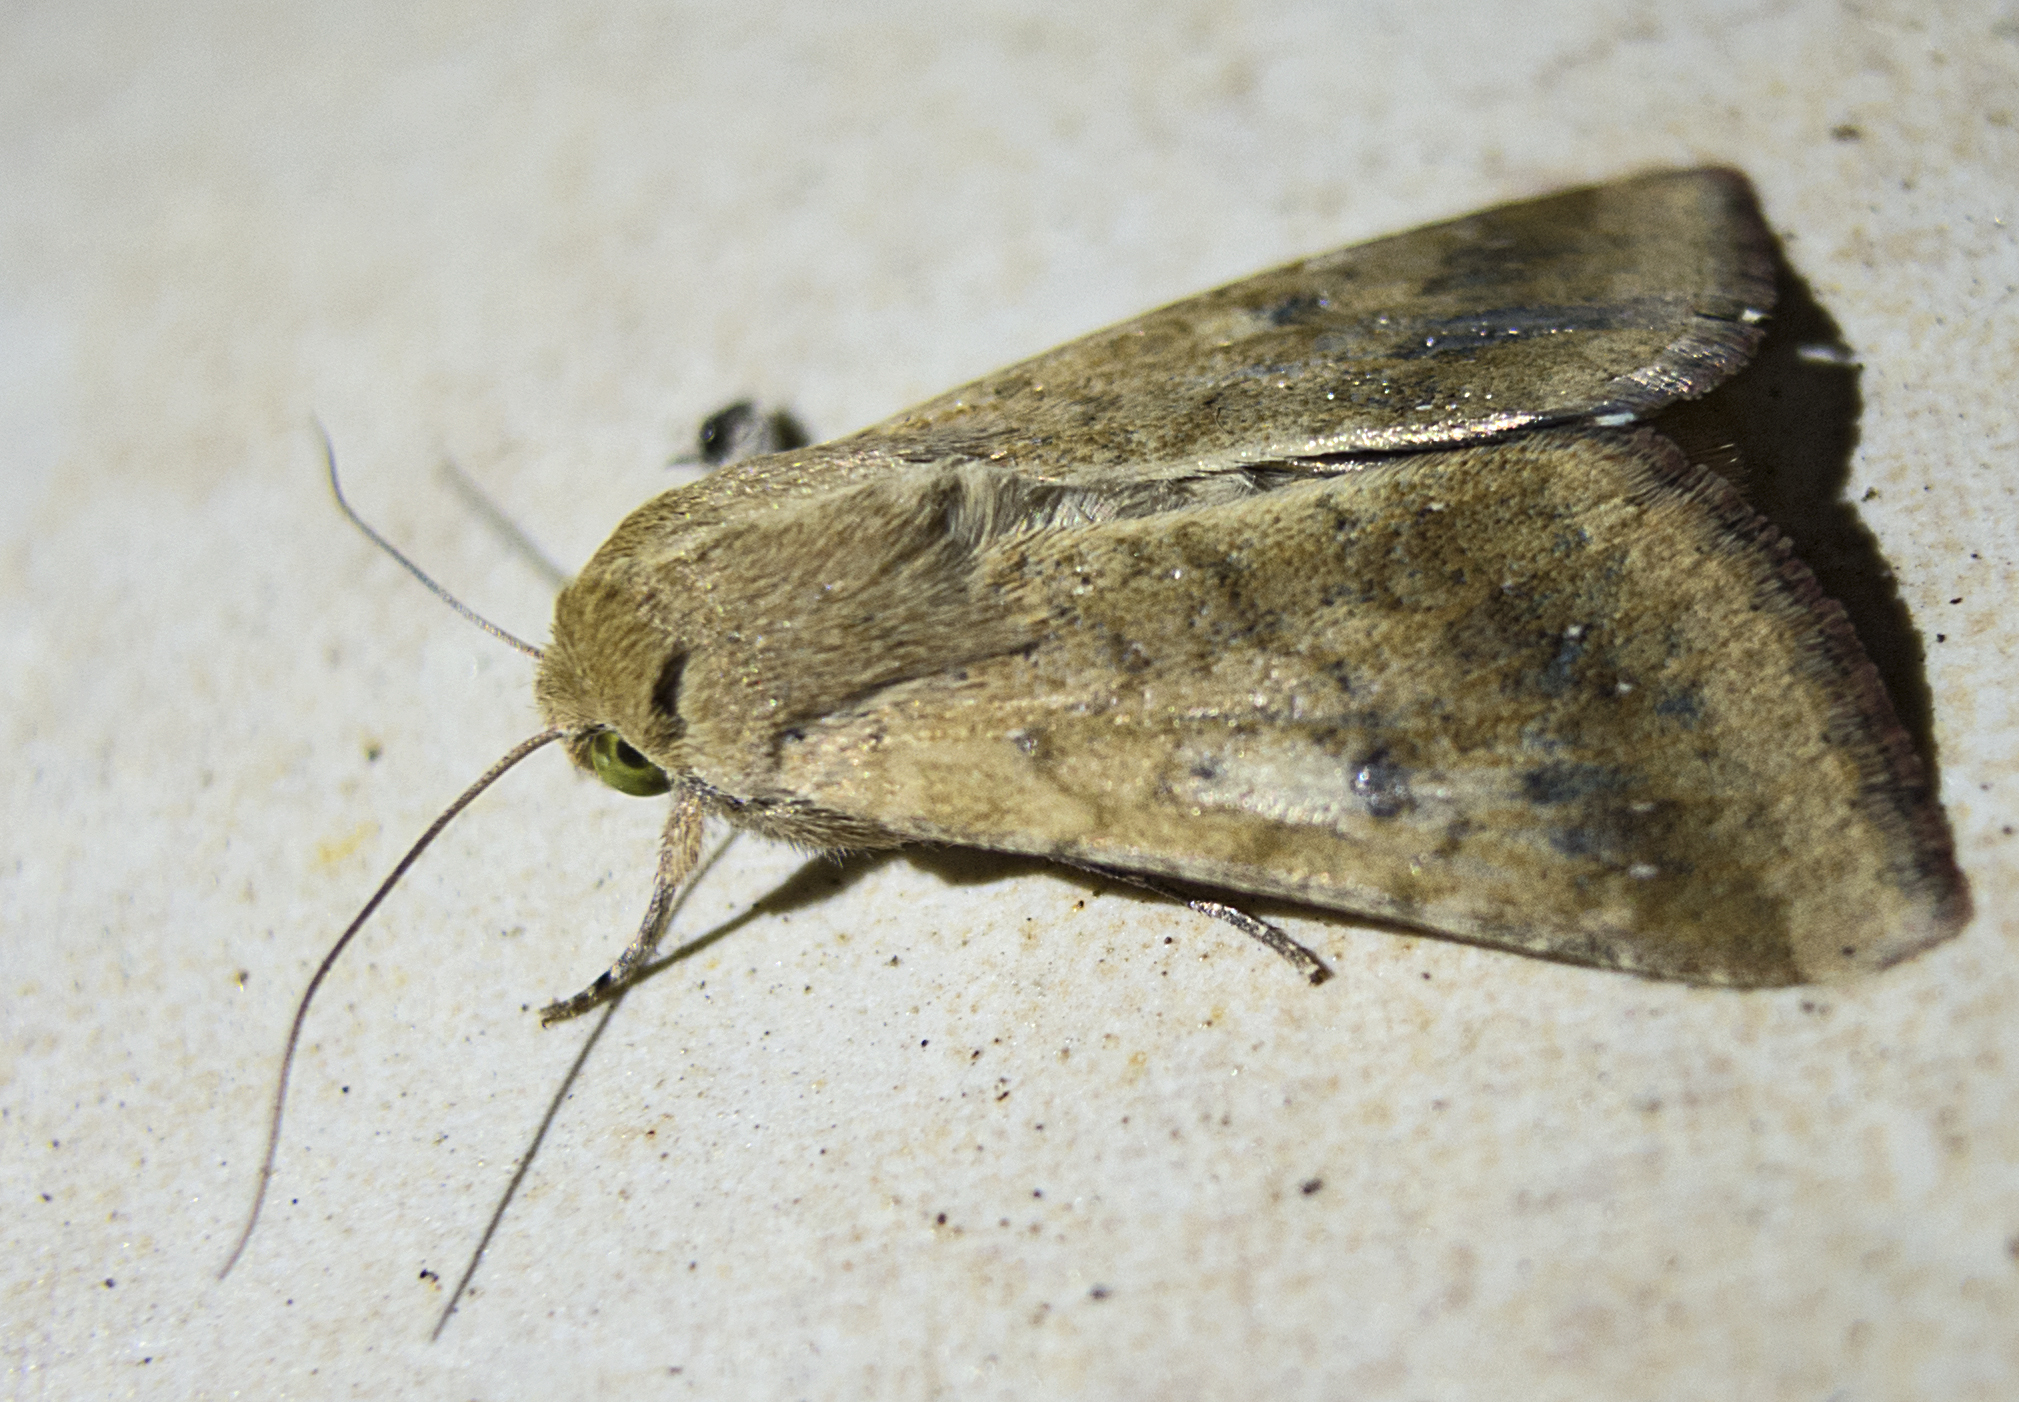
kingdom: Animalia
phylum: Arthropoda
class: Insecta
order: Lepidoptera
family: Noctuidae
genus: Helicoverpa
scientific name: Helicoverpa armigera
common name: Cotton bollworm
